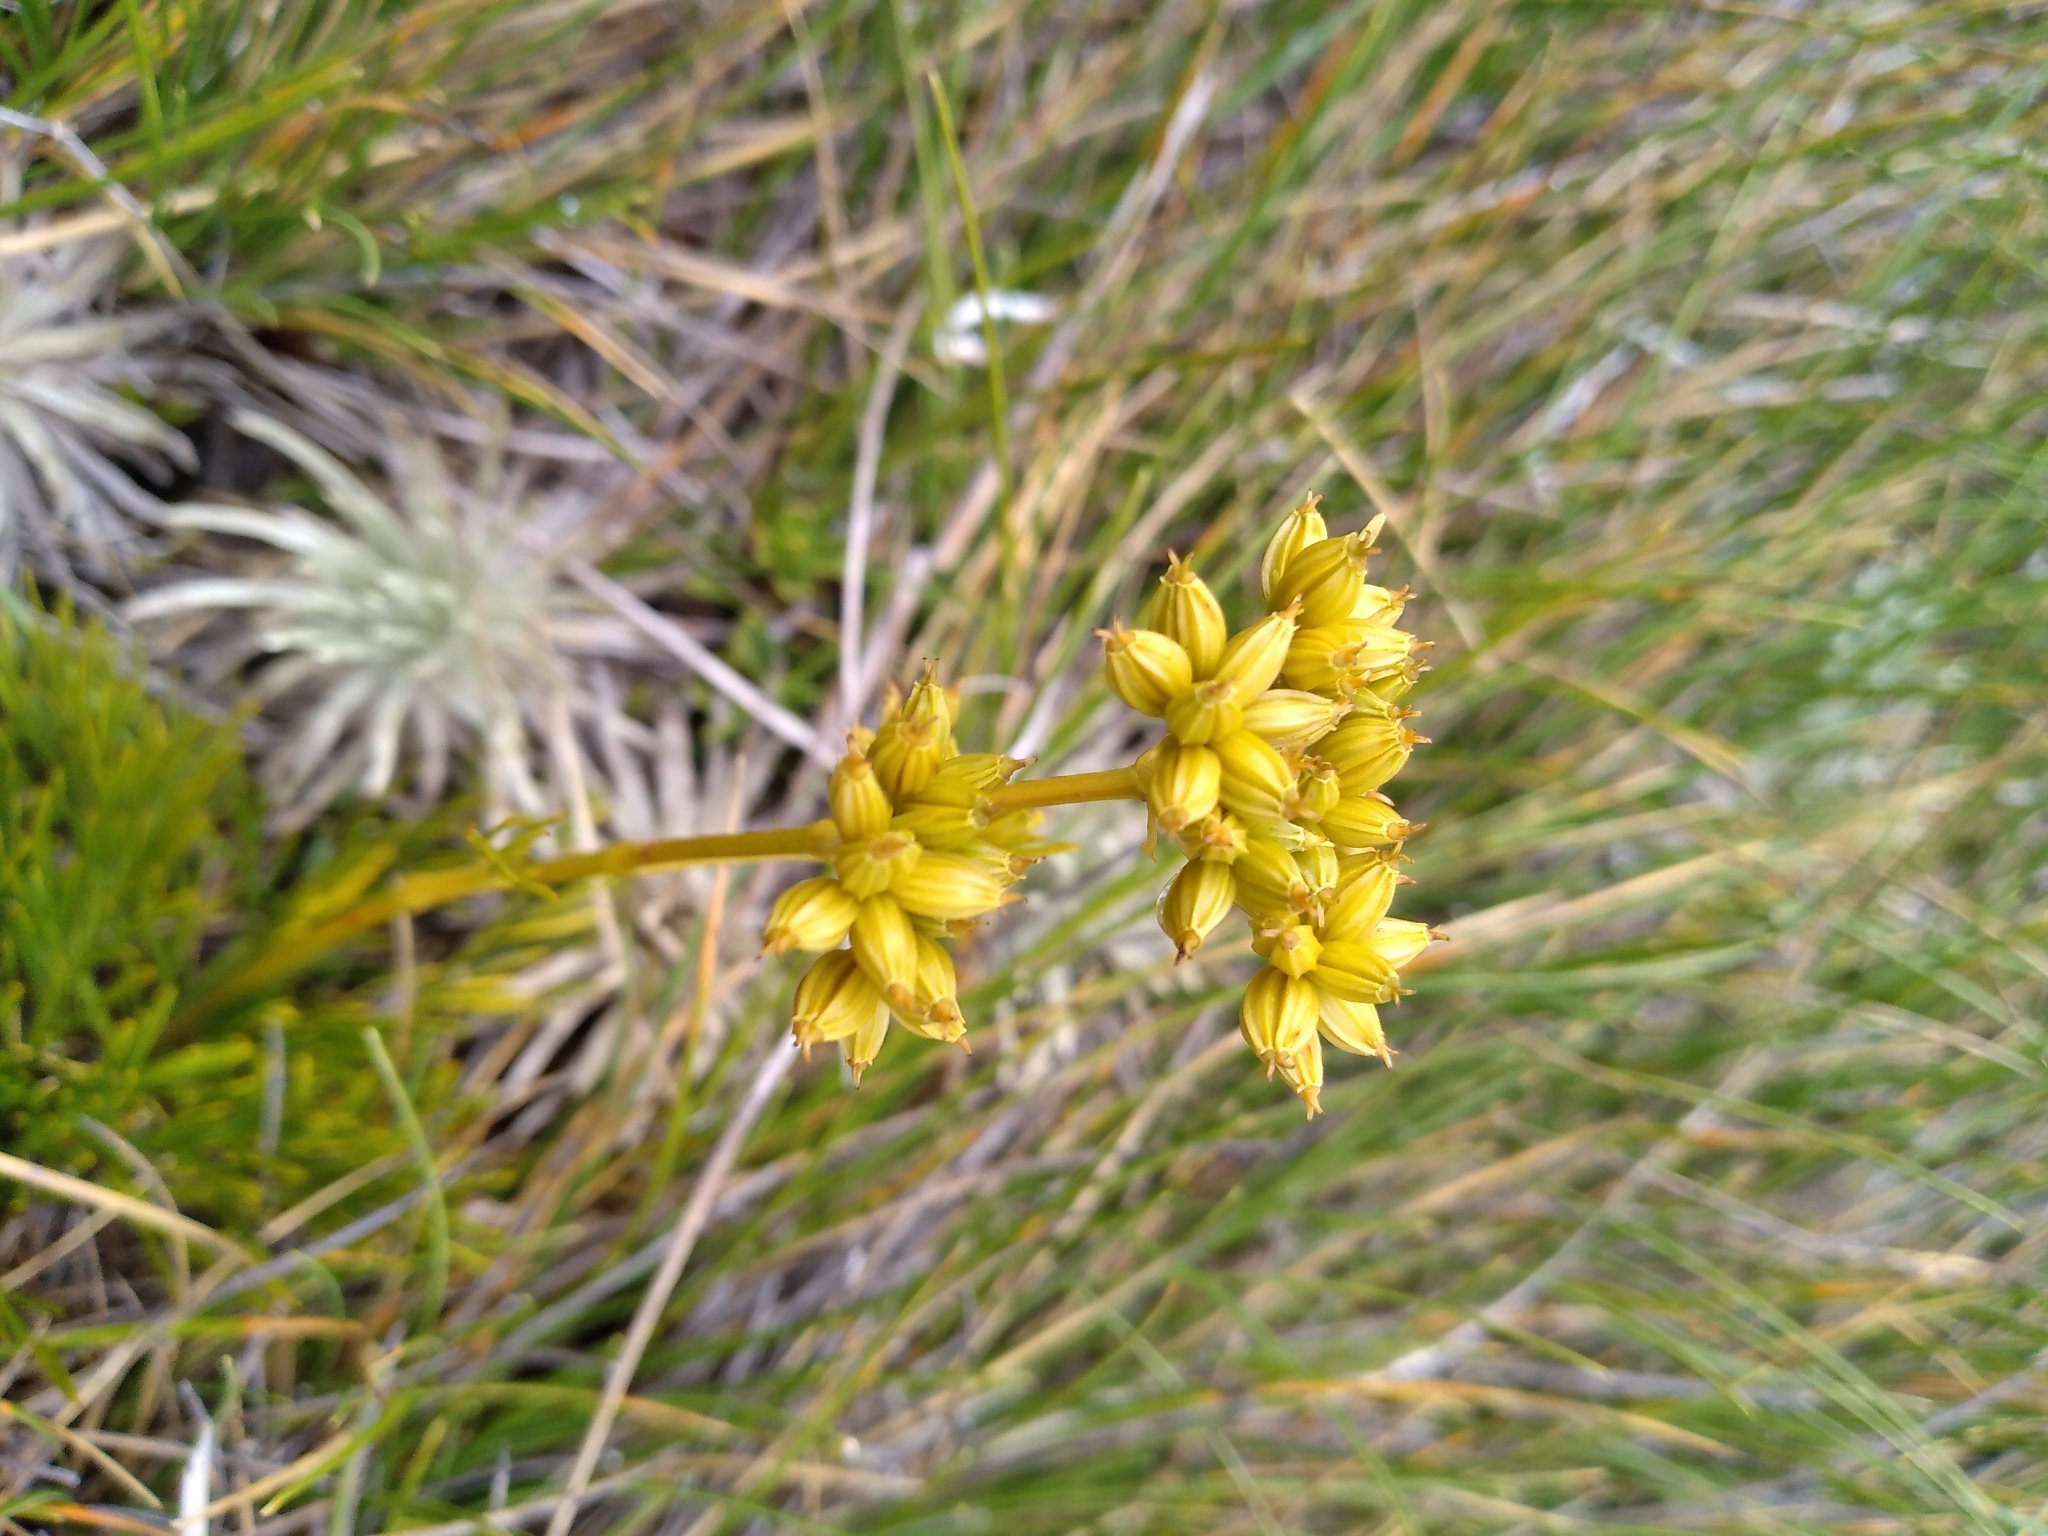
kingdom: Plantae
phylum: Tracheophyta
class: Magnoliopsida
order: Apiales
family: Apiaceae
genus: Aciphylla
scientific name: Aciphylla polita
